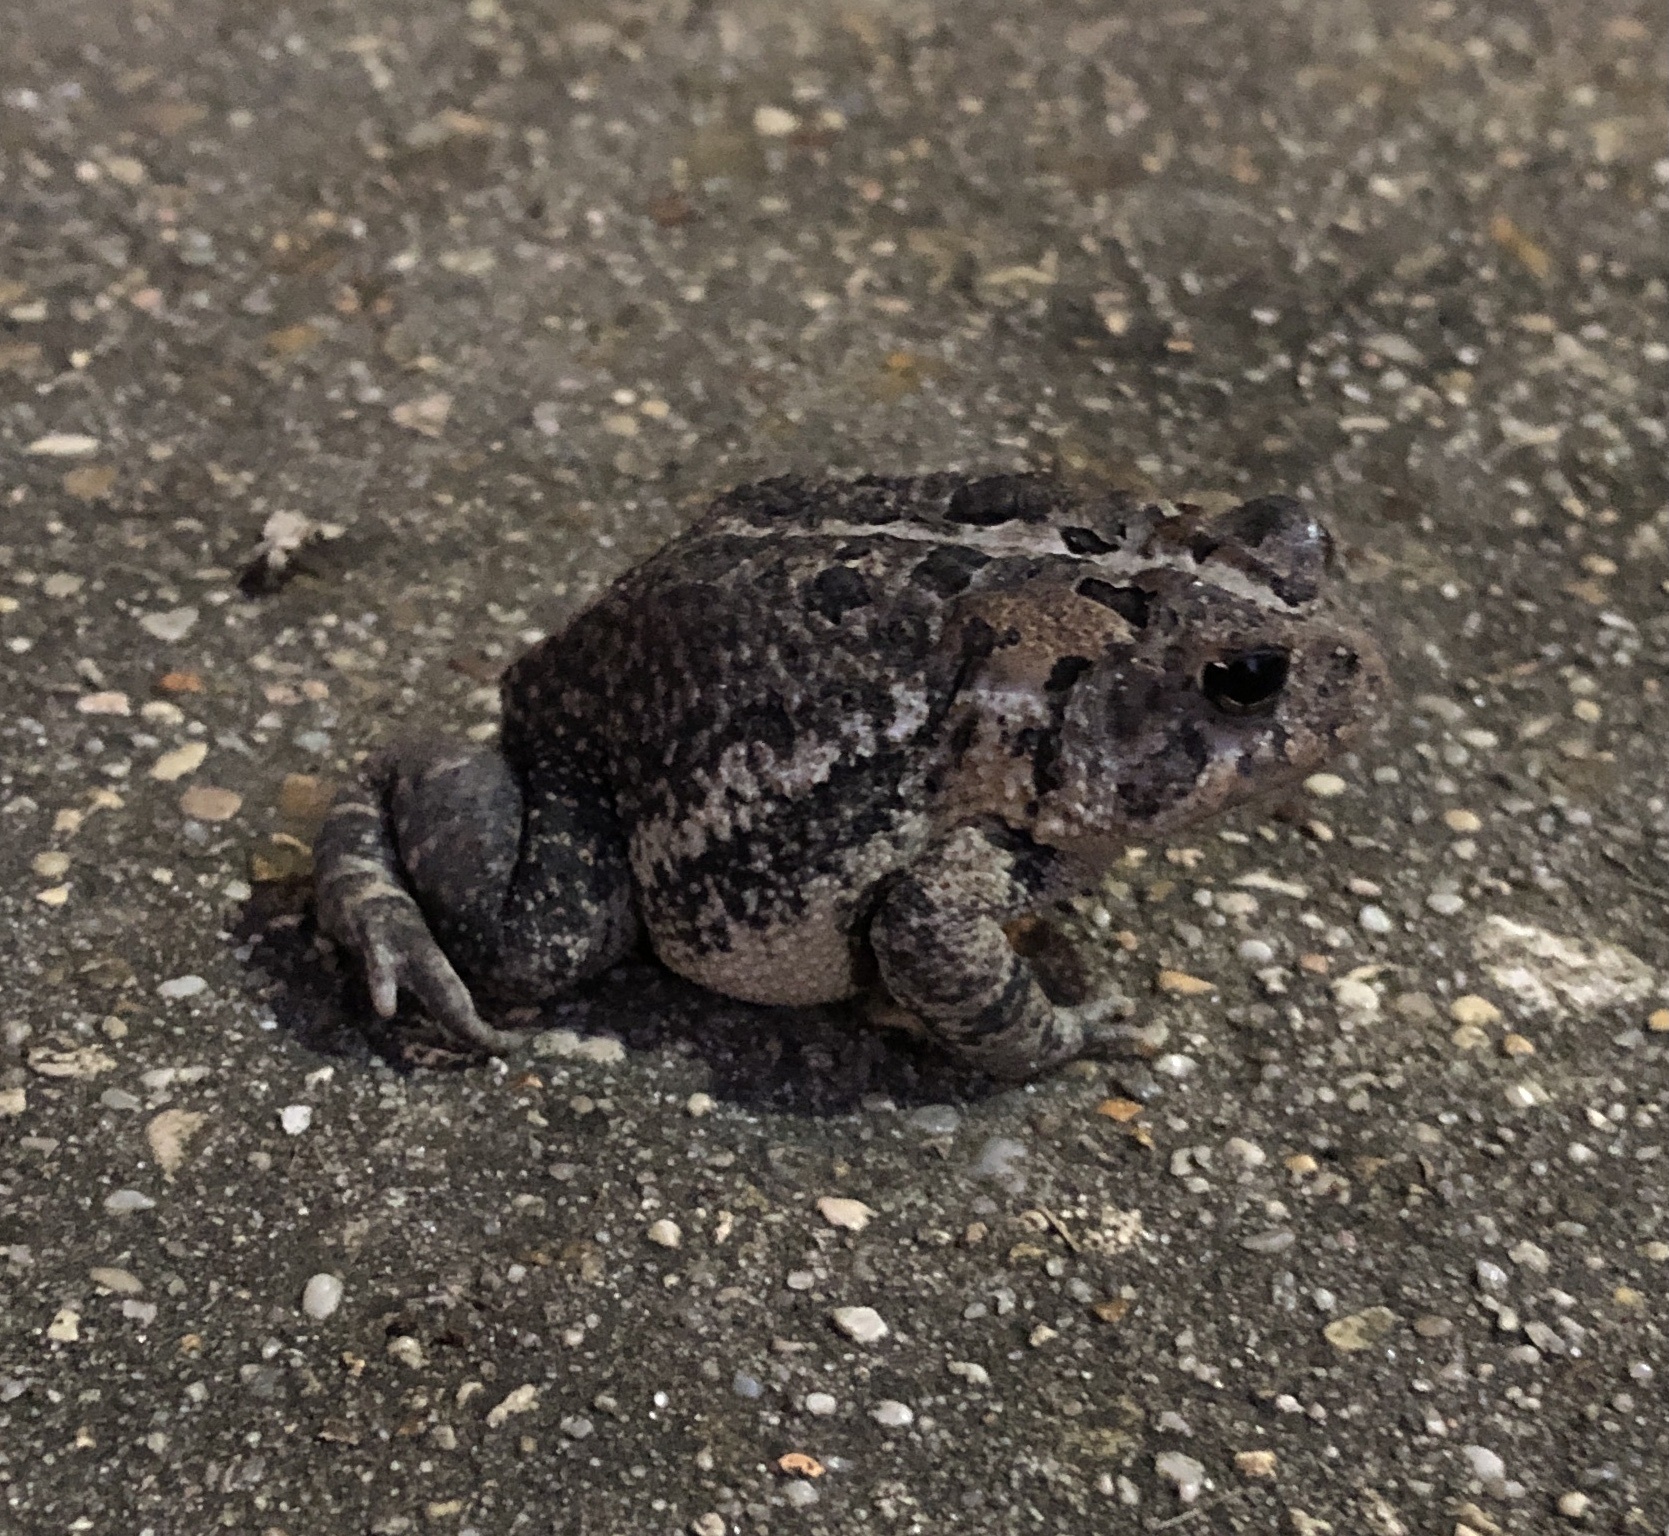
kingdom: Animalia
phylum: Chordata
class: Amphibia
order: Anura
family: Bufonidae
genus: Anaxyrus
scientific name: Anaxyrus terrestris
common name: Southern toad
